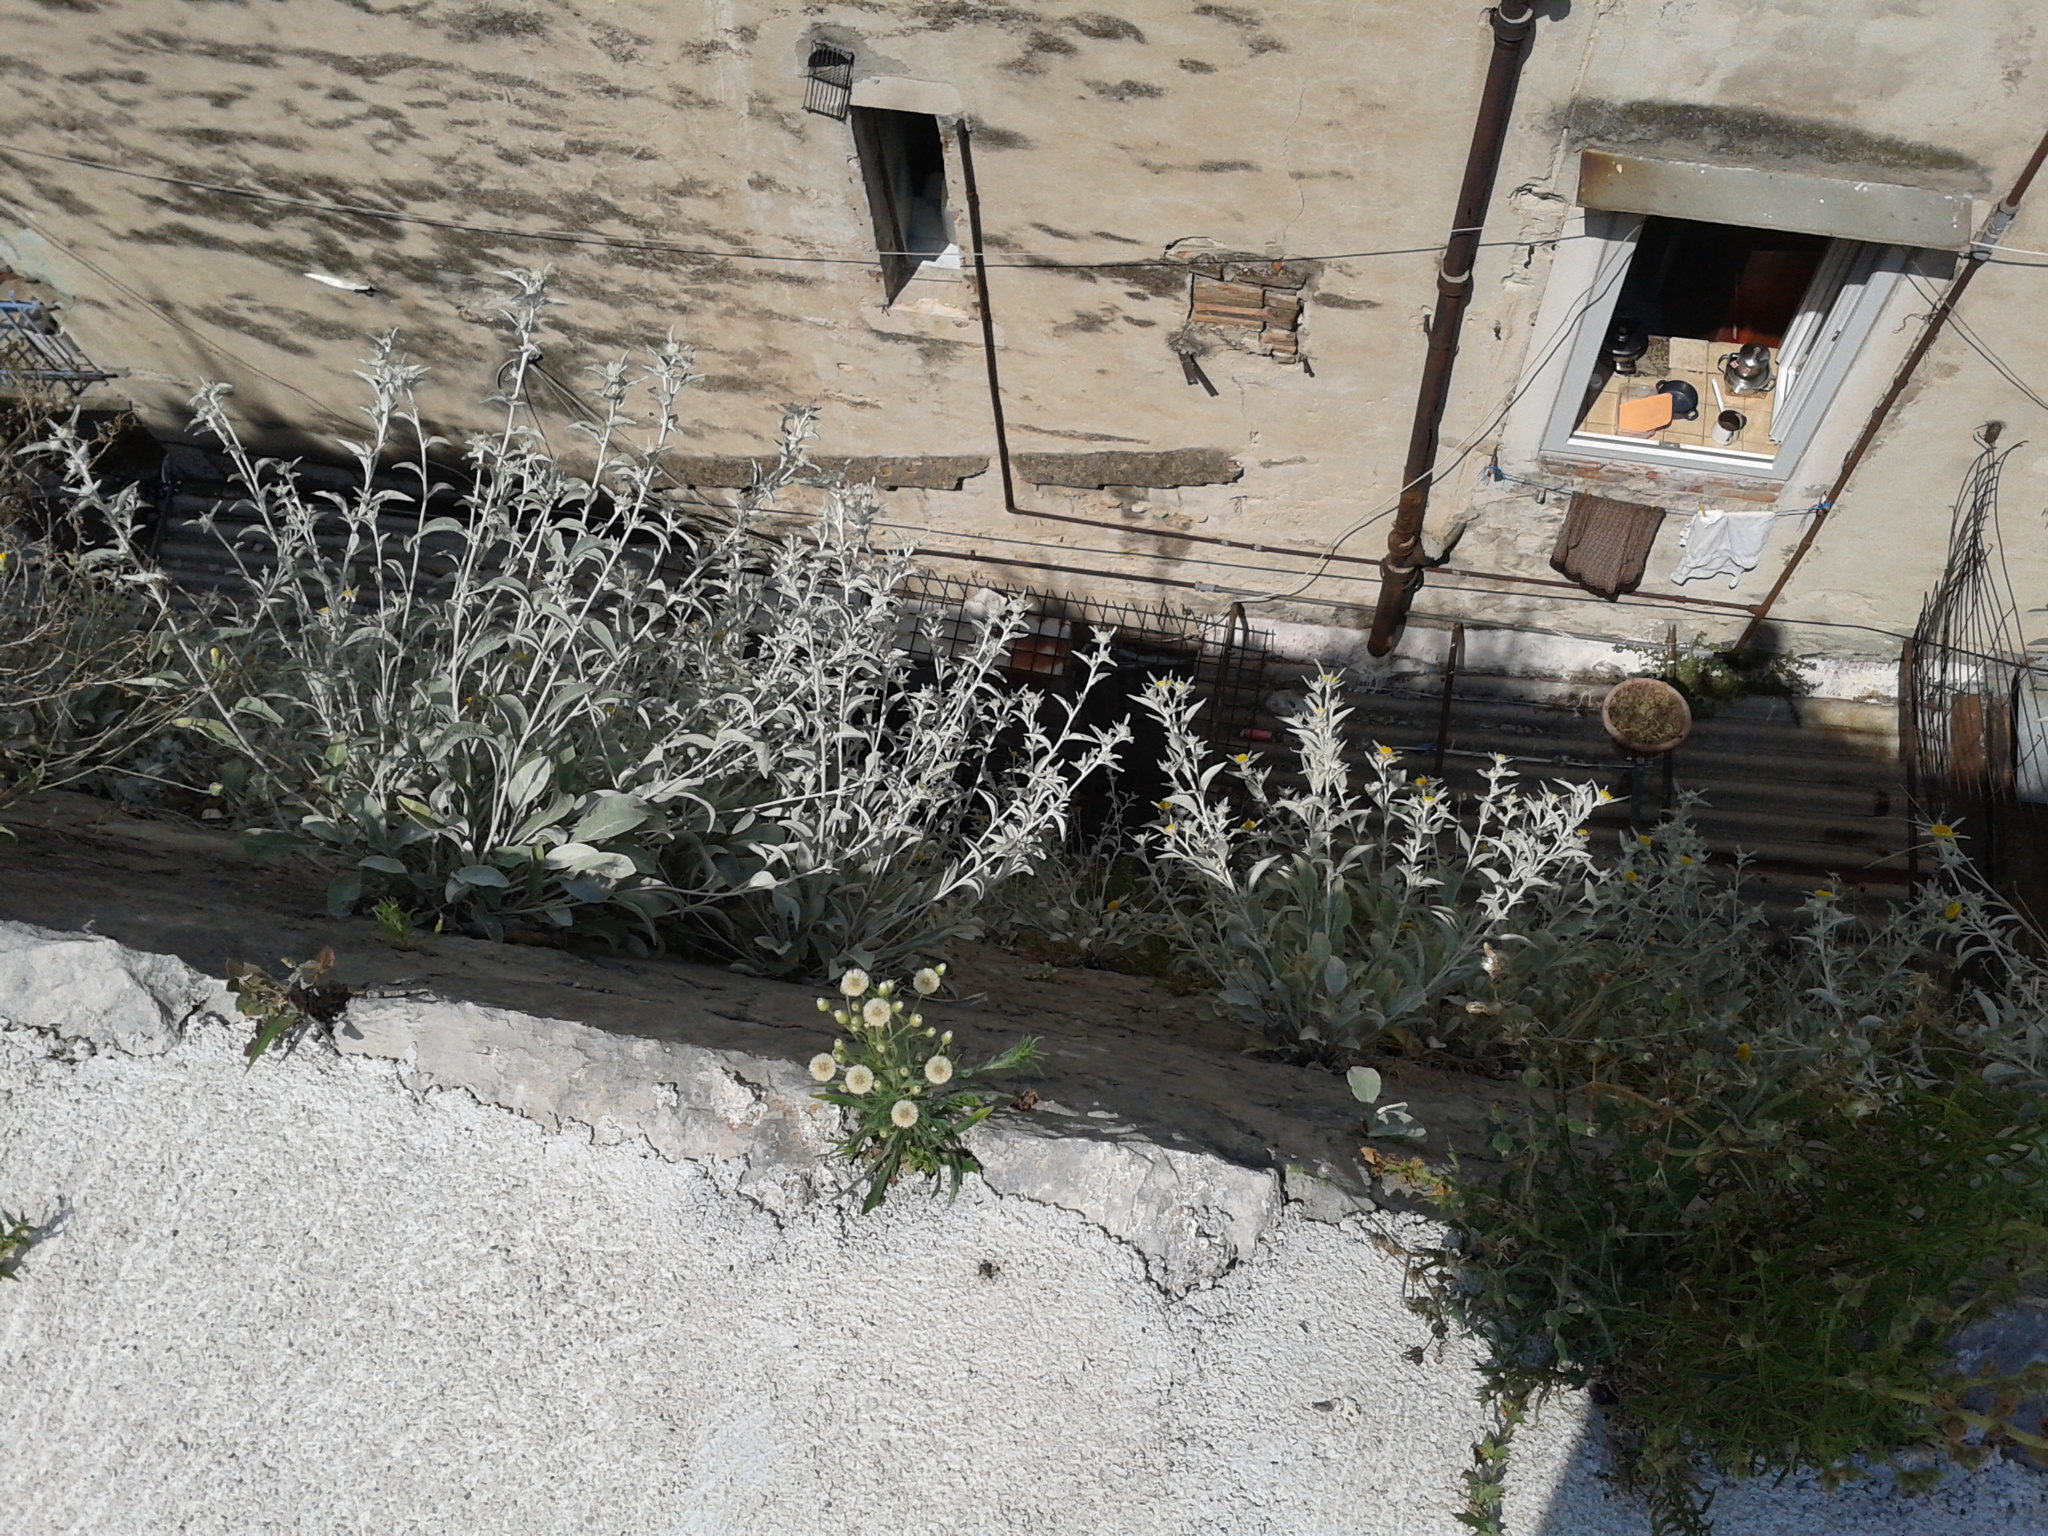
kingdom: Plantae
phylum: Tracheophyta
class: Magnoliopsida
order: Asterales
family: Asteraceae
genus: Pentanema
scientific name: Pentanema verbascifolium
